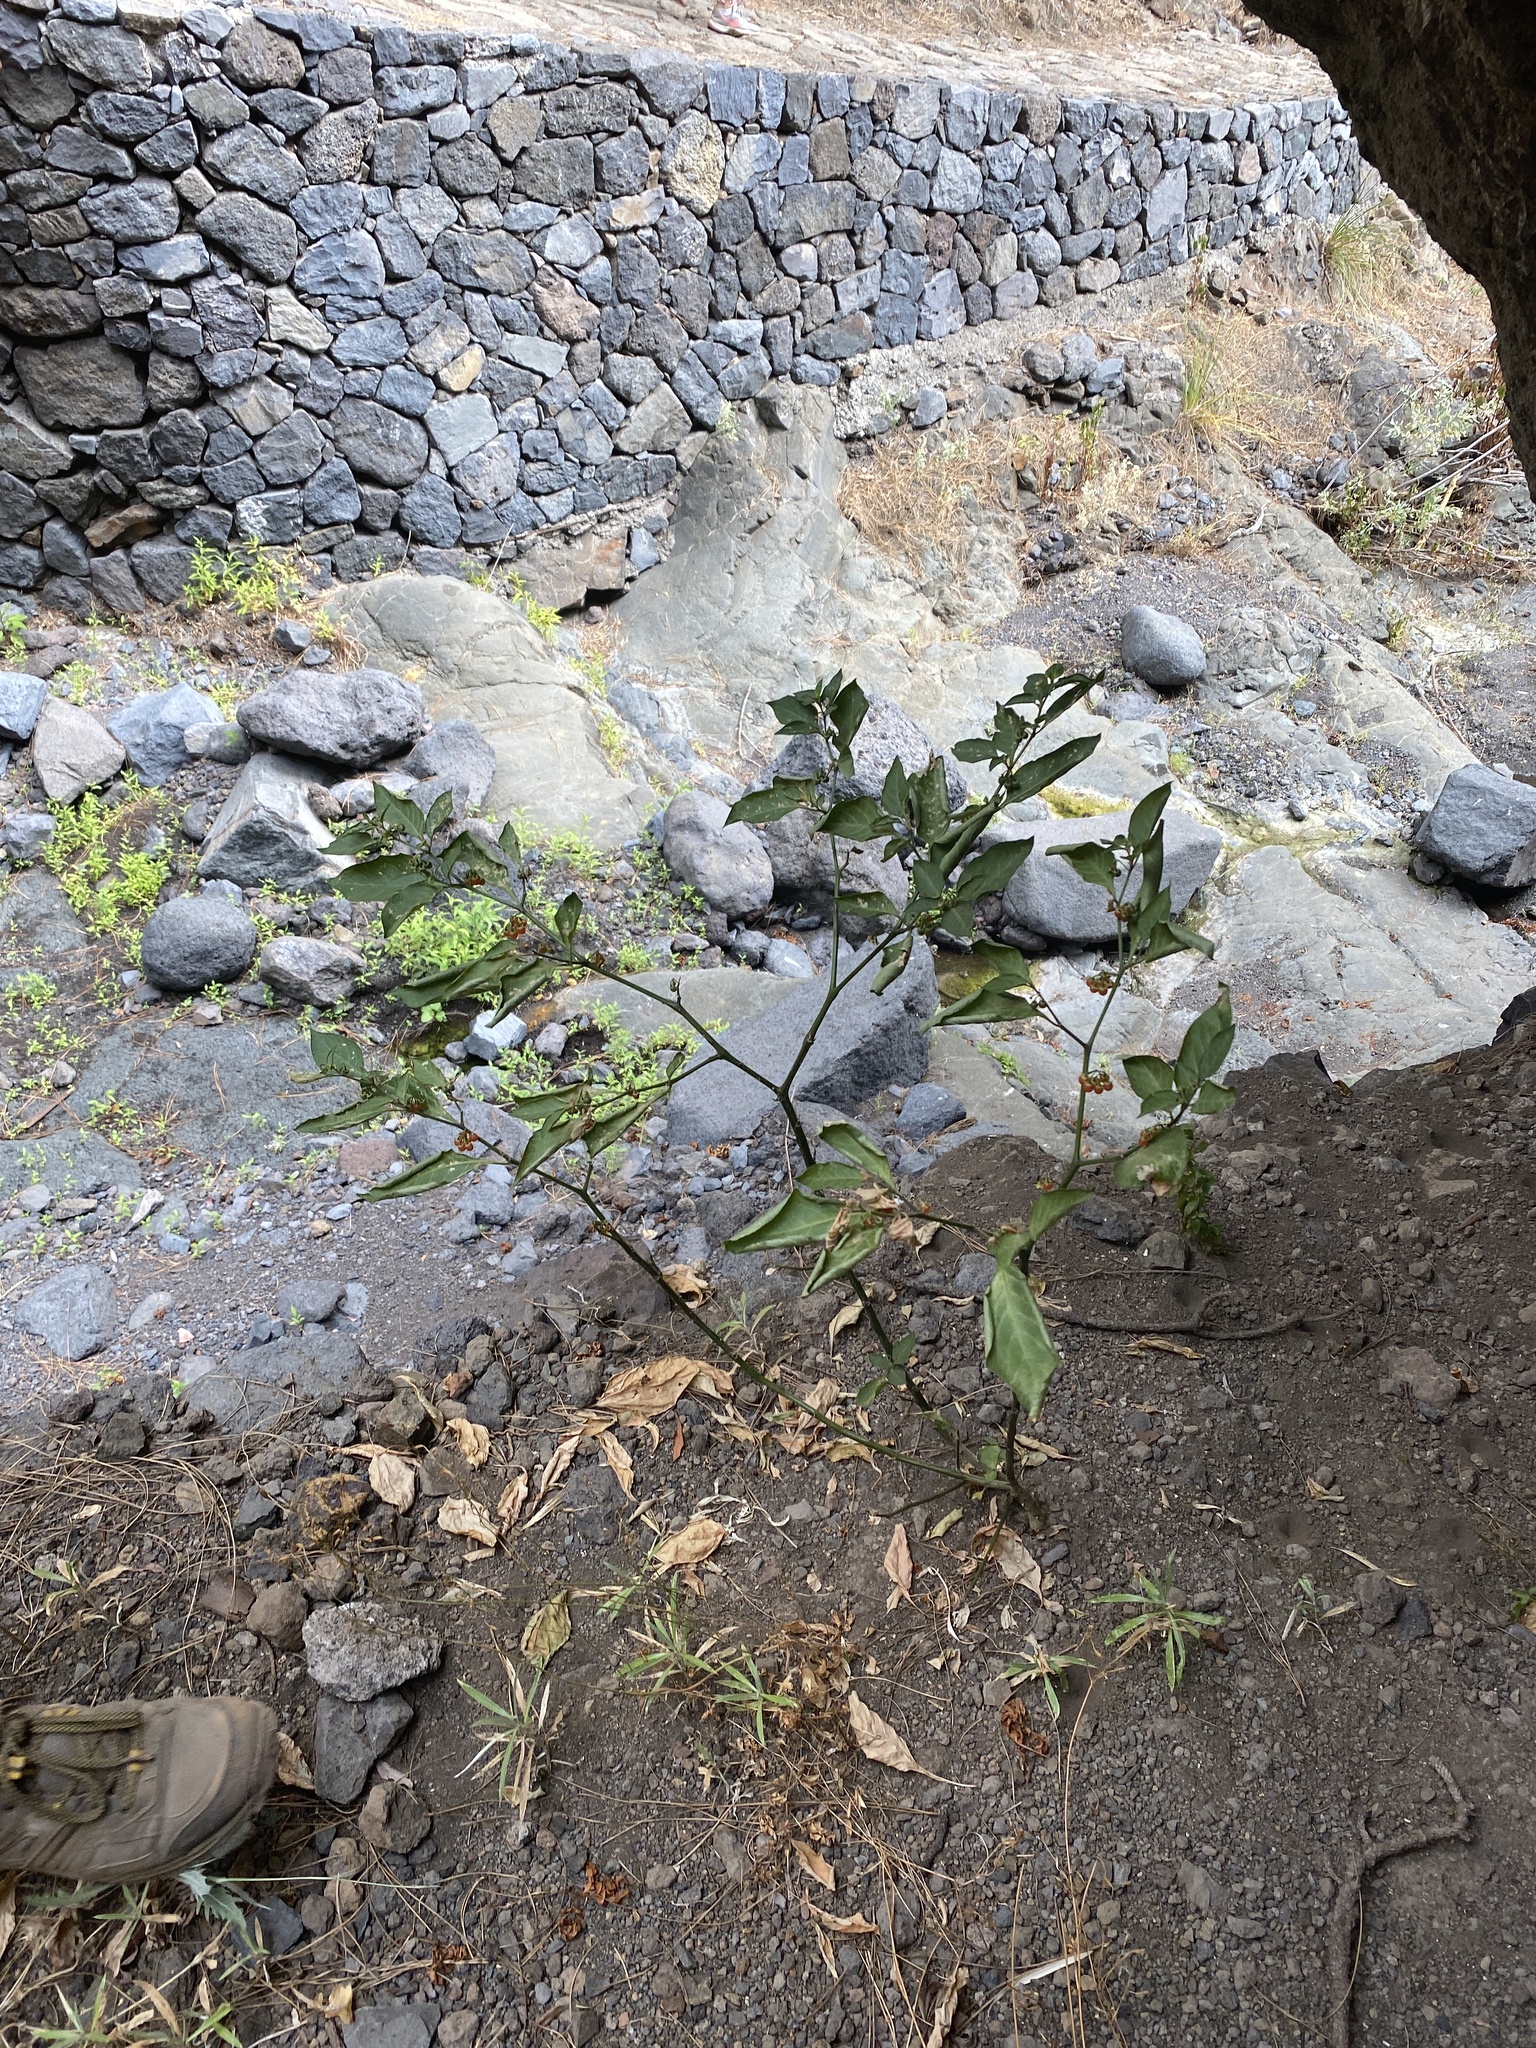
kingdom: Plantae
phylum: Tracheophyta
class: Magnoliopsida
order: Solanales
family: Solanaceae
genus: Solanum
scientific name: Solanum villosum
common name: Red nightshade
